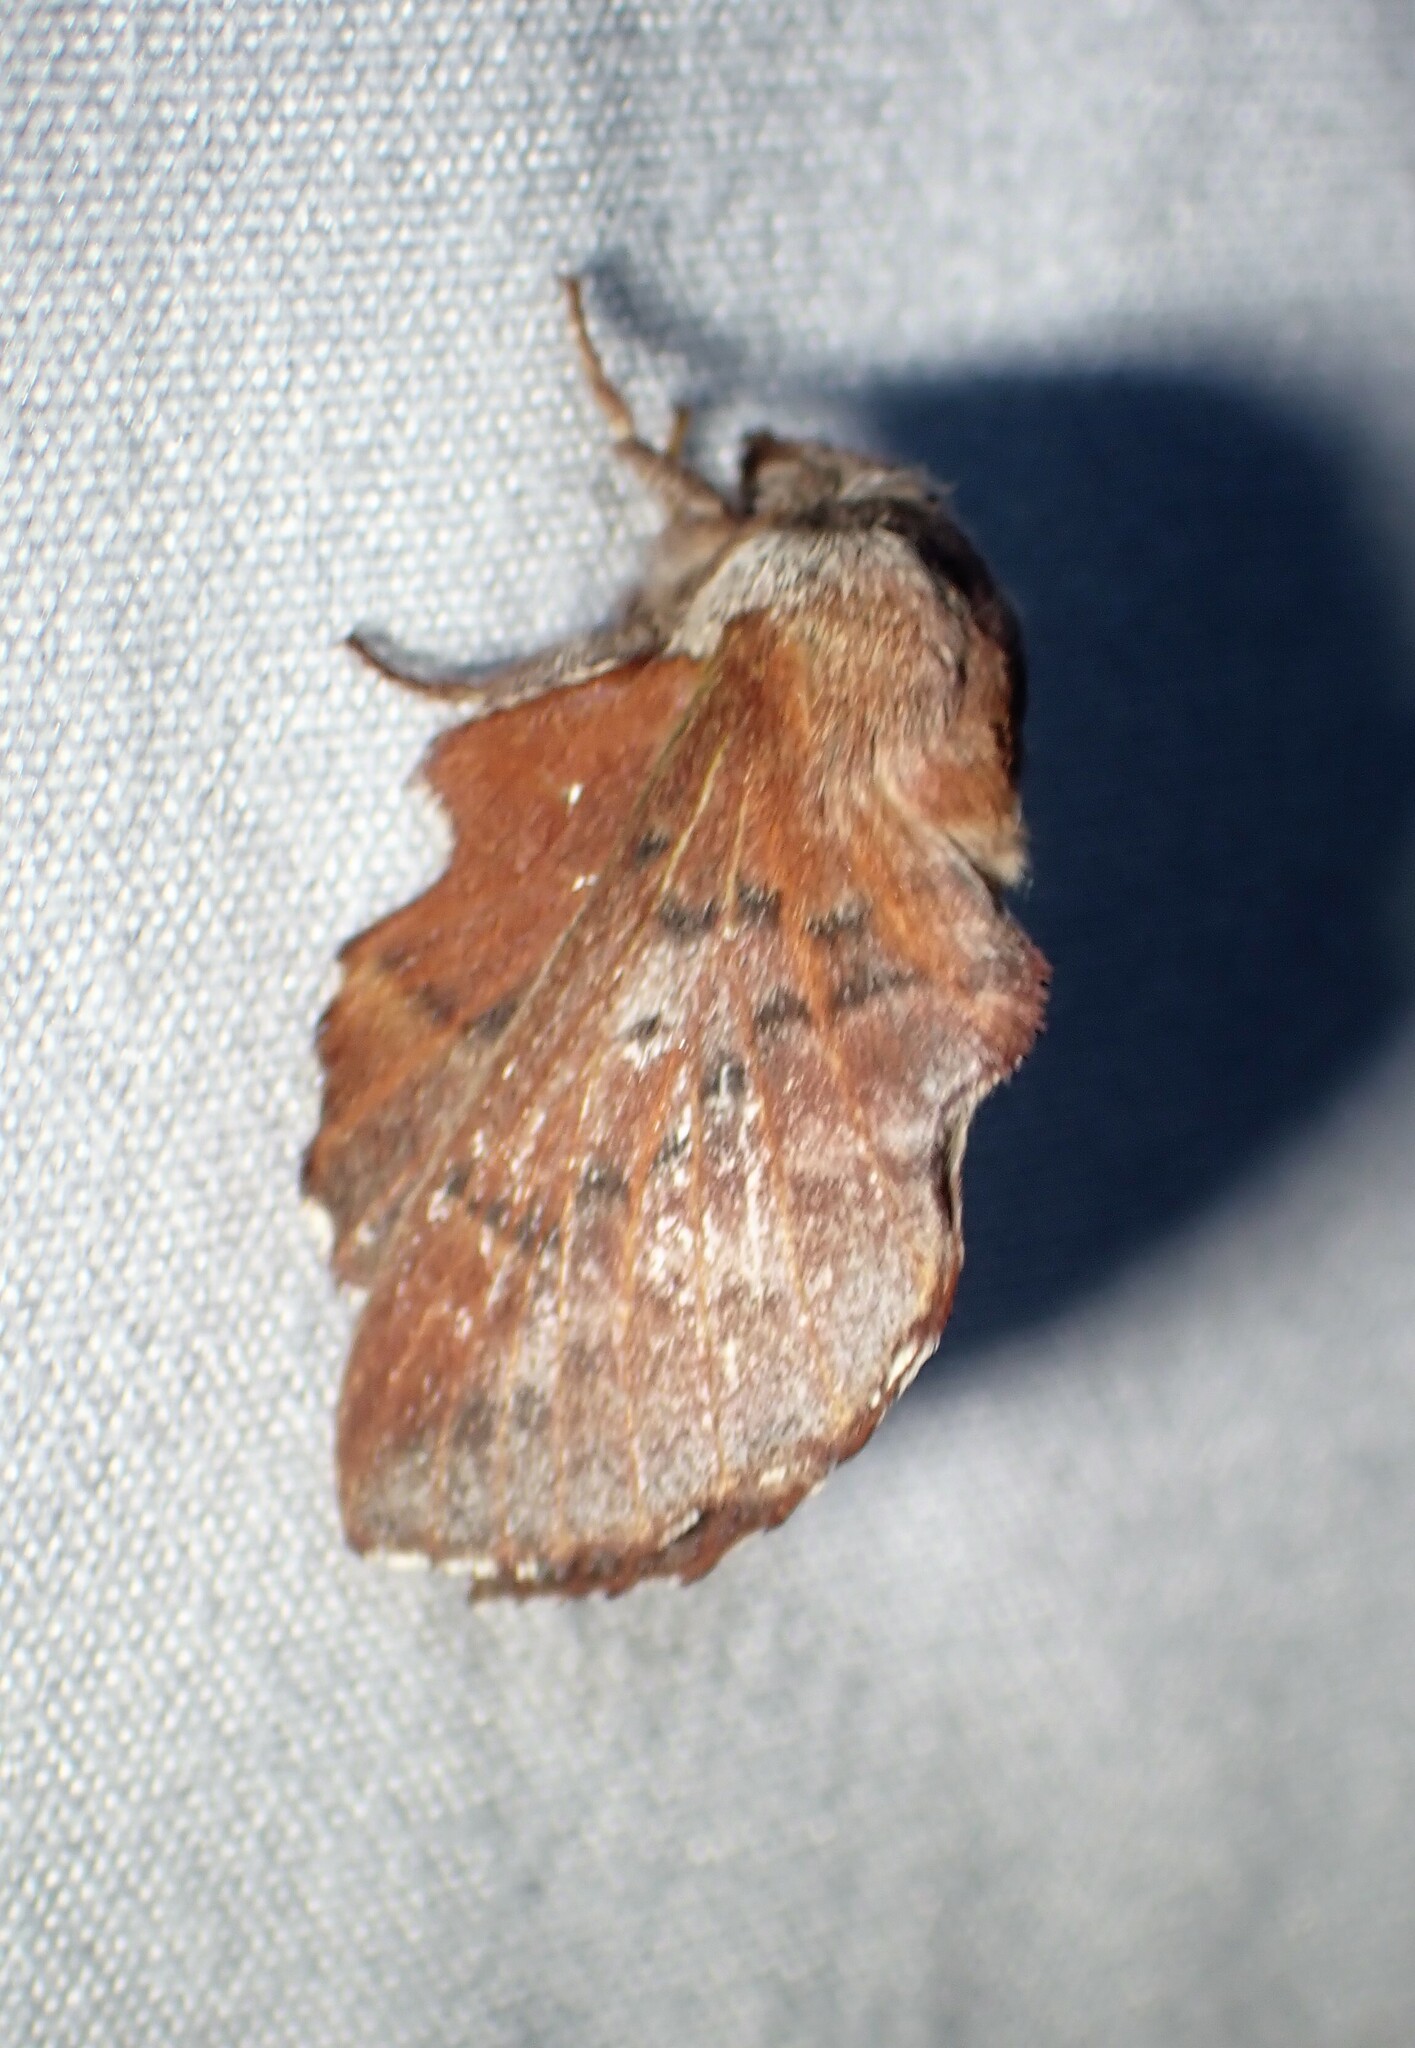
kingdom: Animalia
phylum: Arthropoda
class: Insecta
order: Lepidoptera
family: Lasiocampidae
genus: Phyllodesma
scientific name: Phyllodesma americana
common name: American lappet moth
